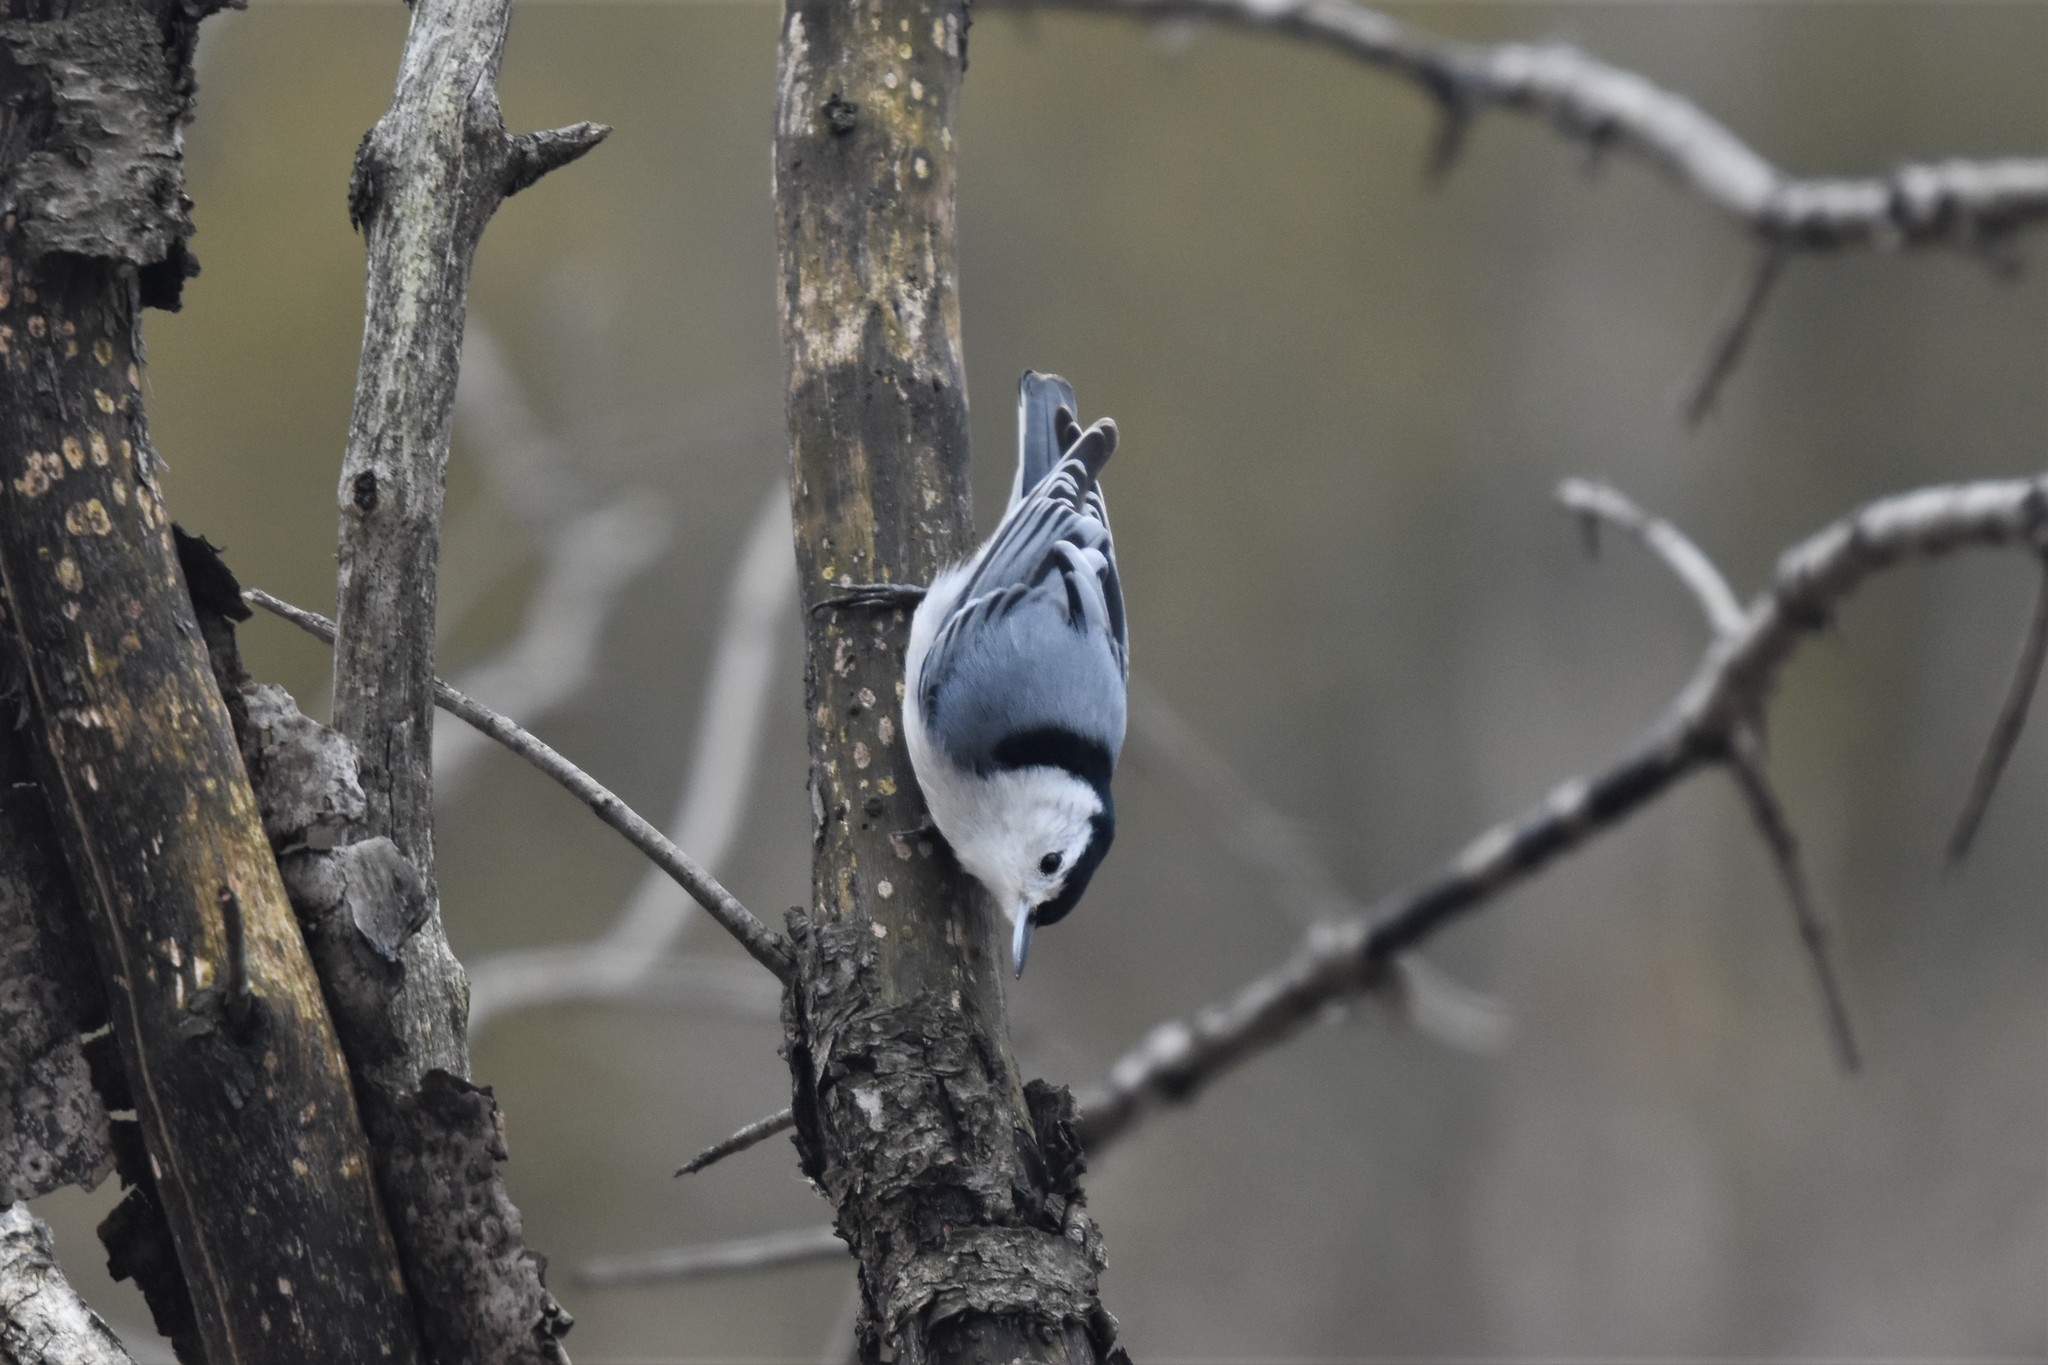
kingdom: Animalia
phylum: Chordata
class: Aves
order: Passeriformes
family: Sittidae
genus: Sitta
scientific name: Sitta carolinensis
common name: White-breasted nuthatch
